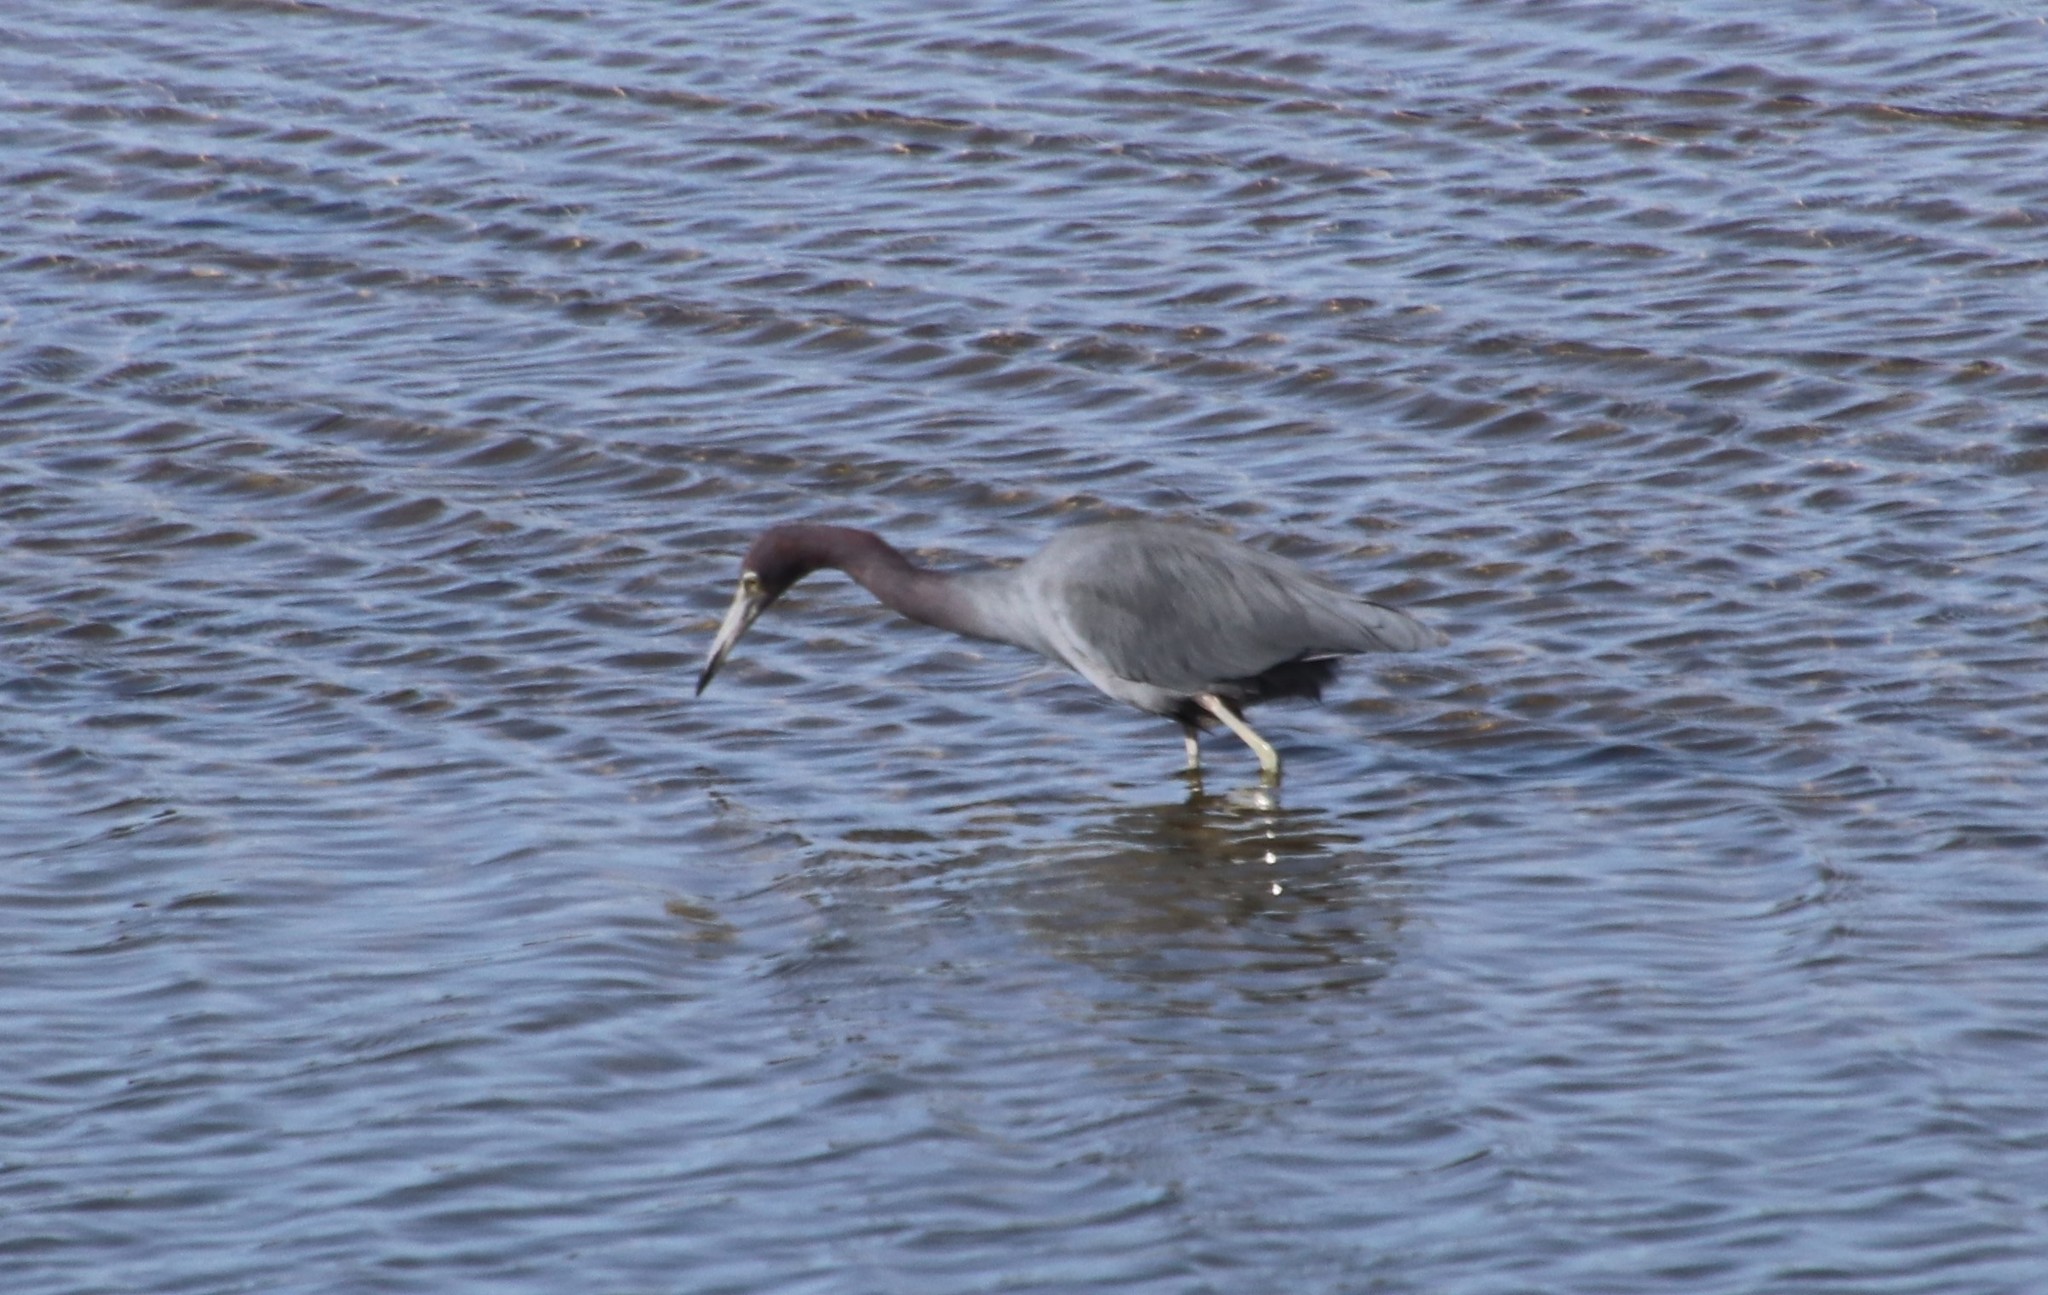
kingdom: Animalia
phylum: Chordata
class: Aves
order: Pelecaniformes
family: Ardeidae
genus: Egretta
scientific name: Egretta caerulea
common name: Little blue heron
